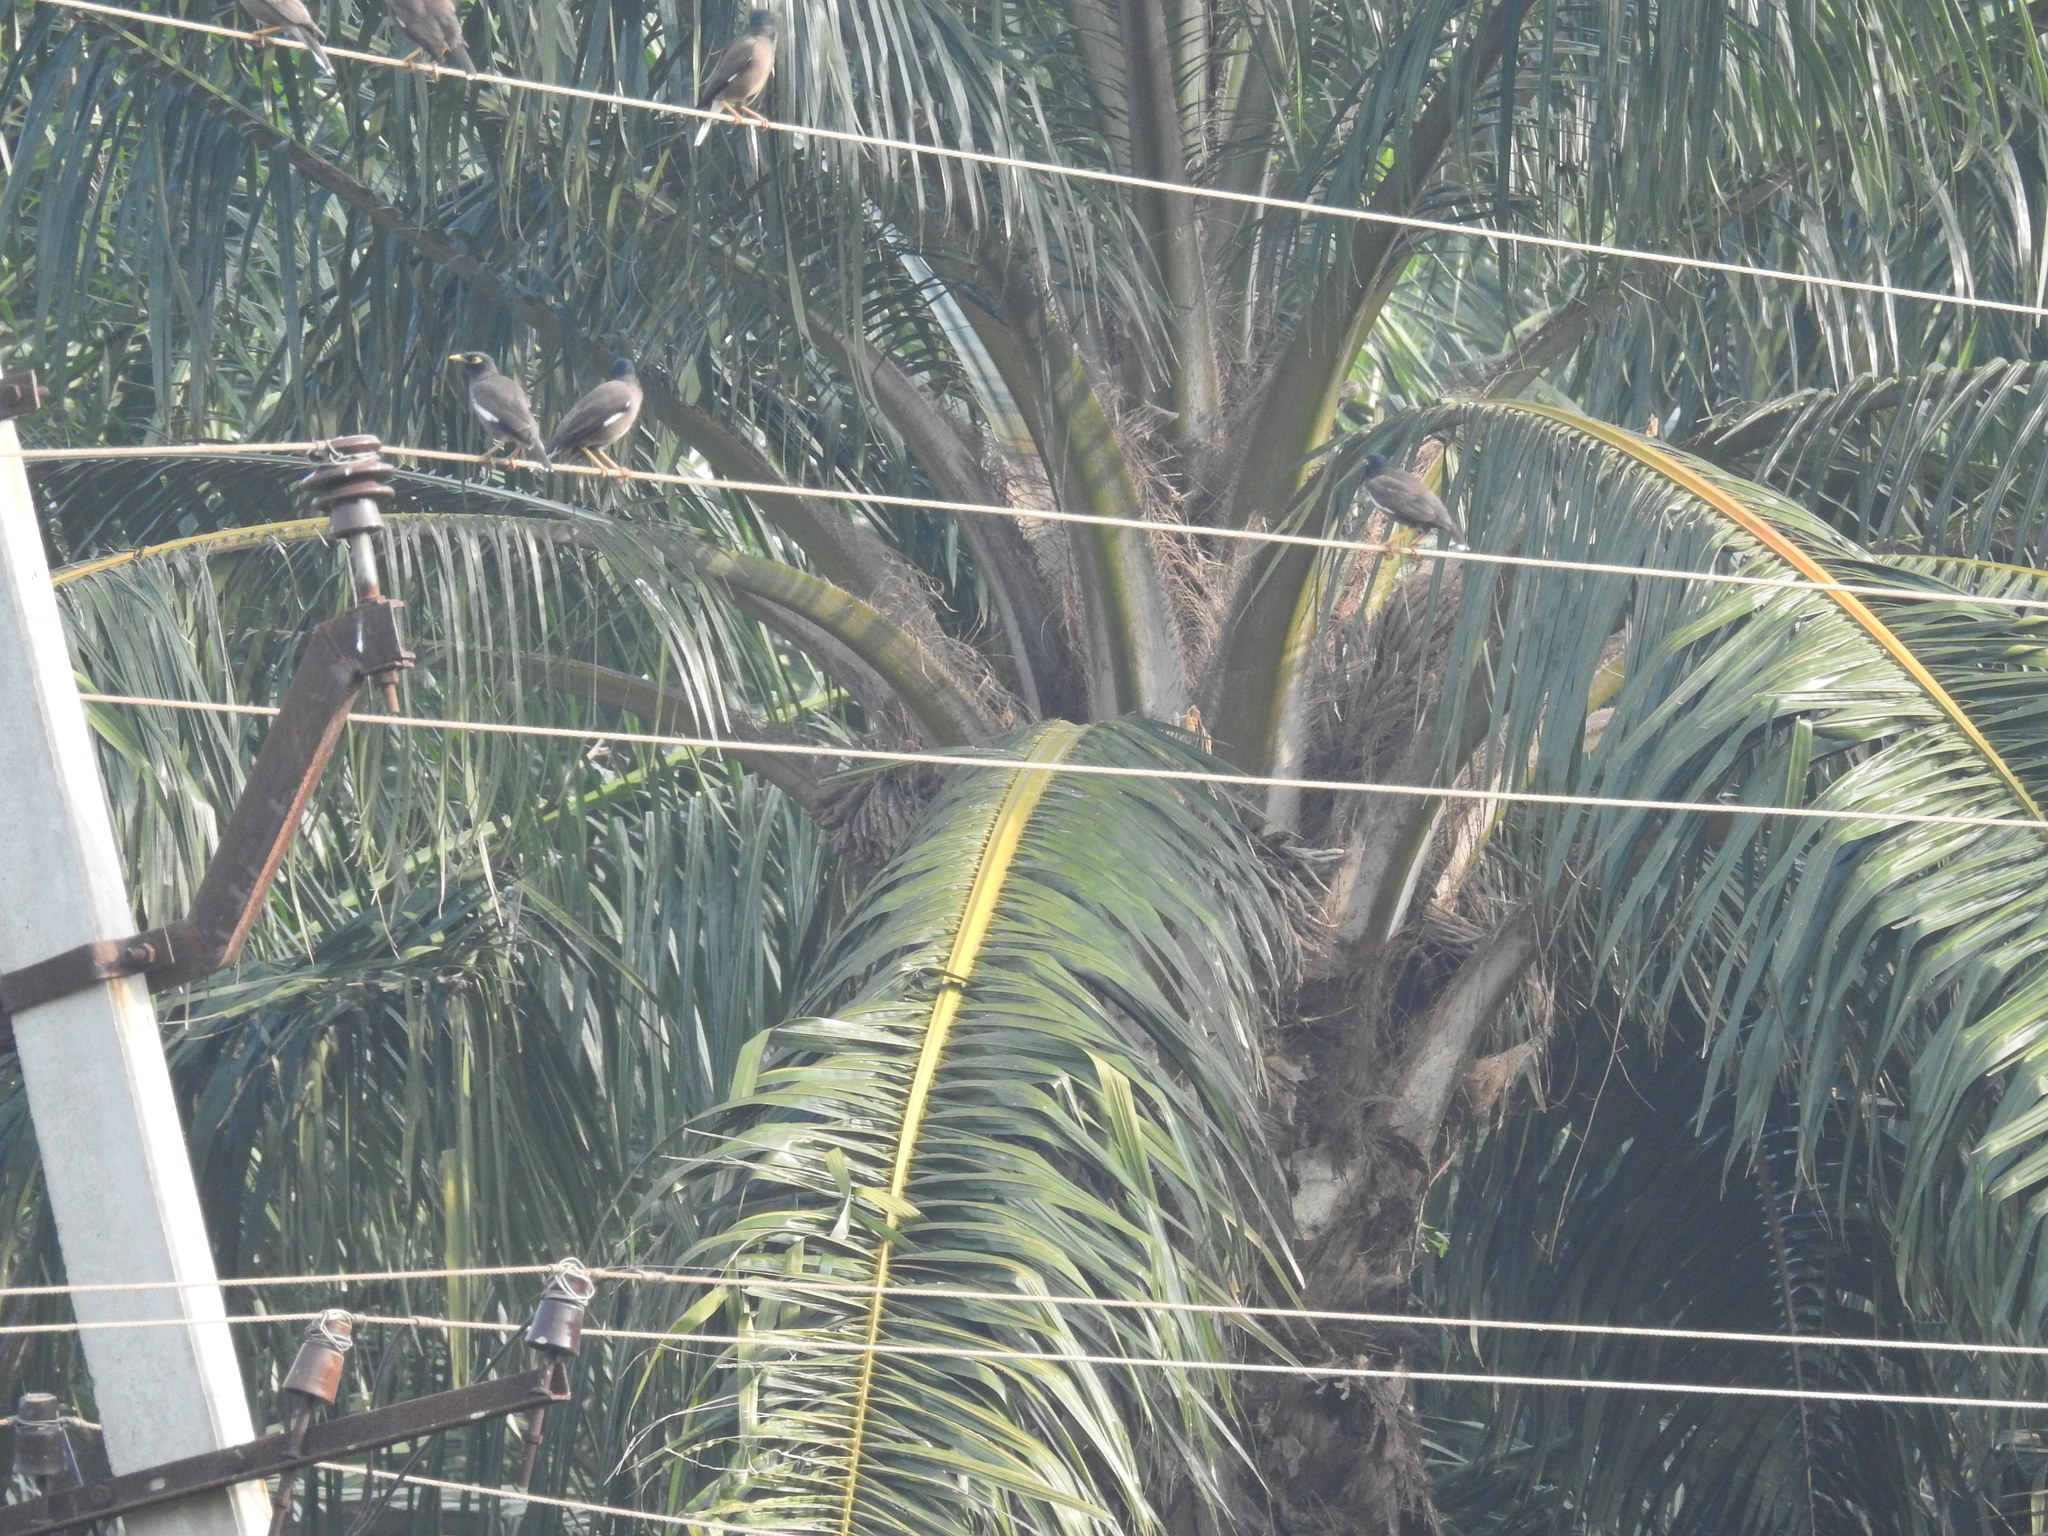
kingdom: Animalia
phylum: Chordata
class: Aves
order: Passeriformes
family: Sturnidae
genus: Acridotheres
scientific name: Acridotheres tristis
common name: Common myna
